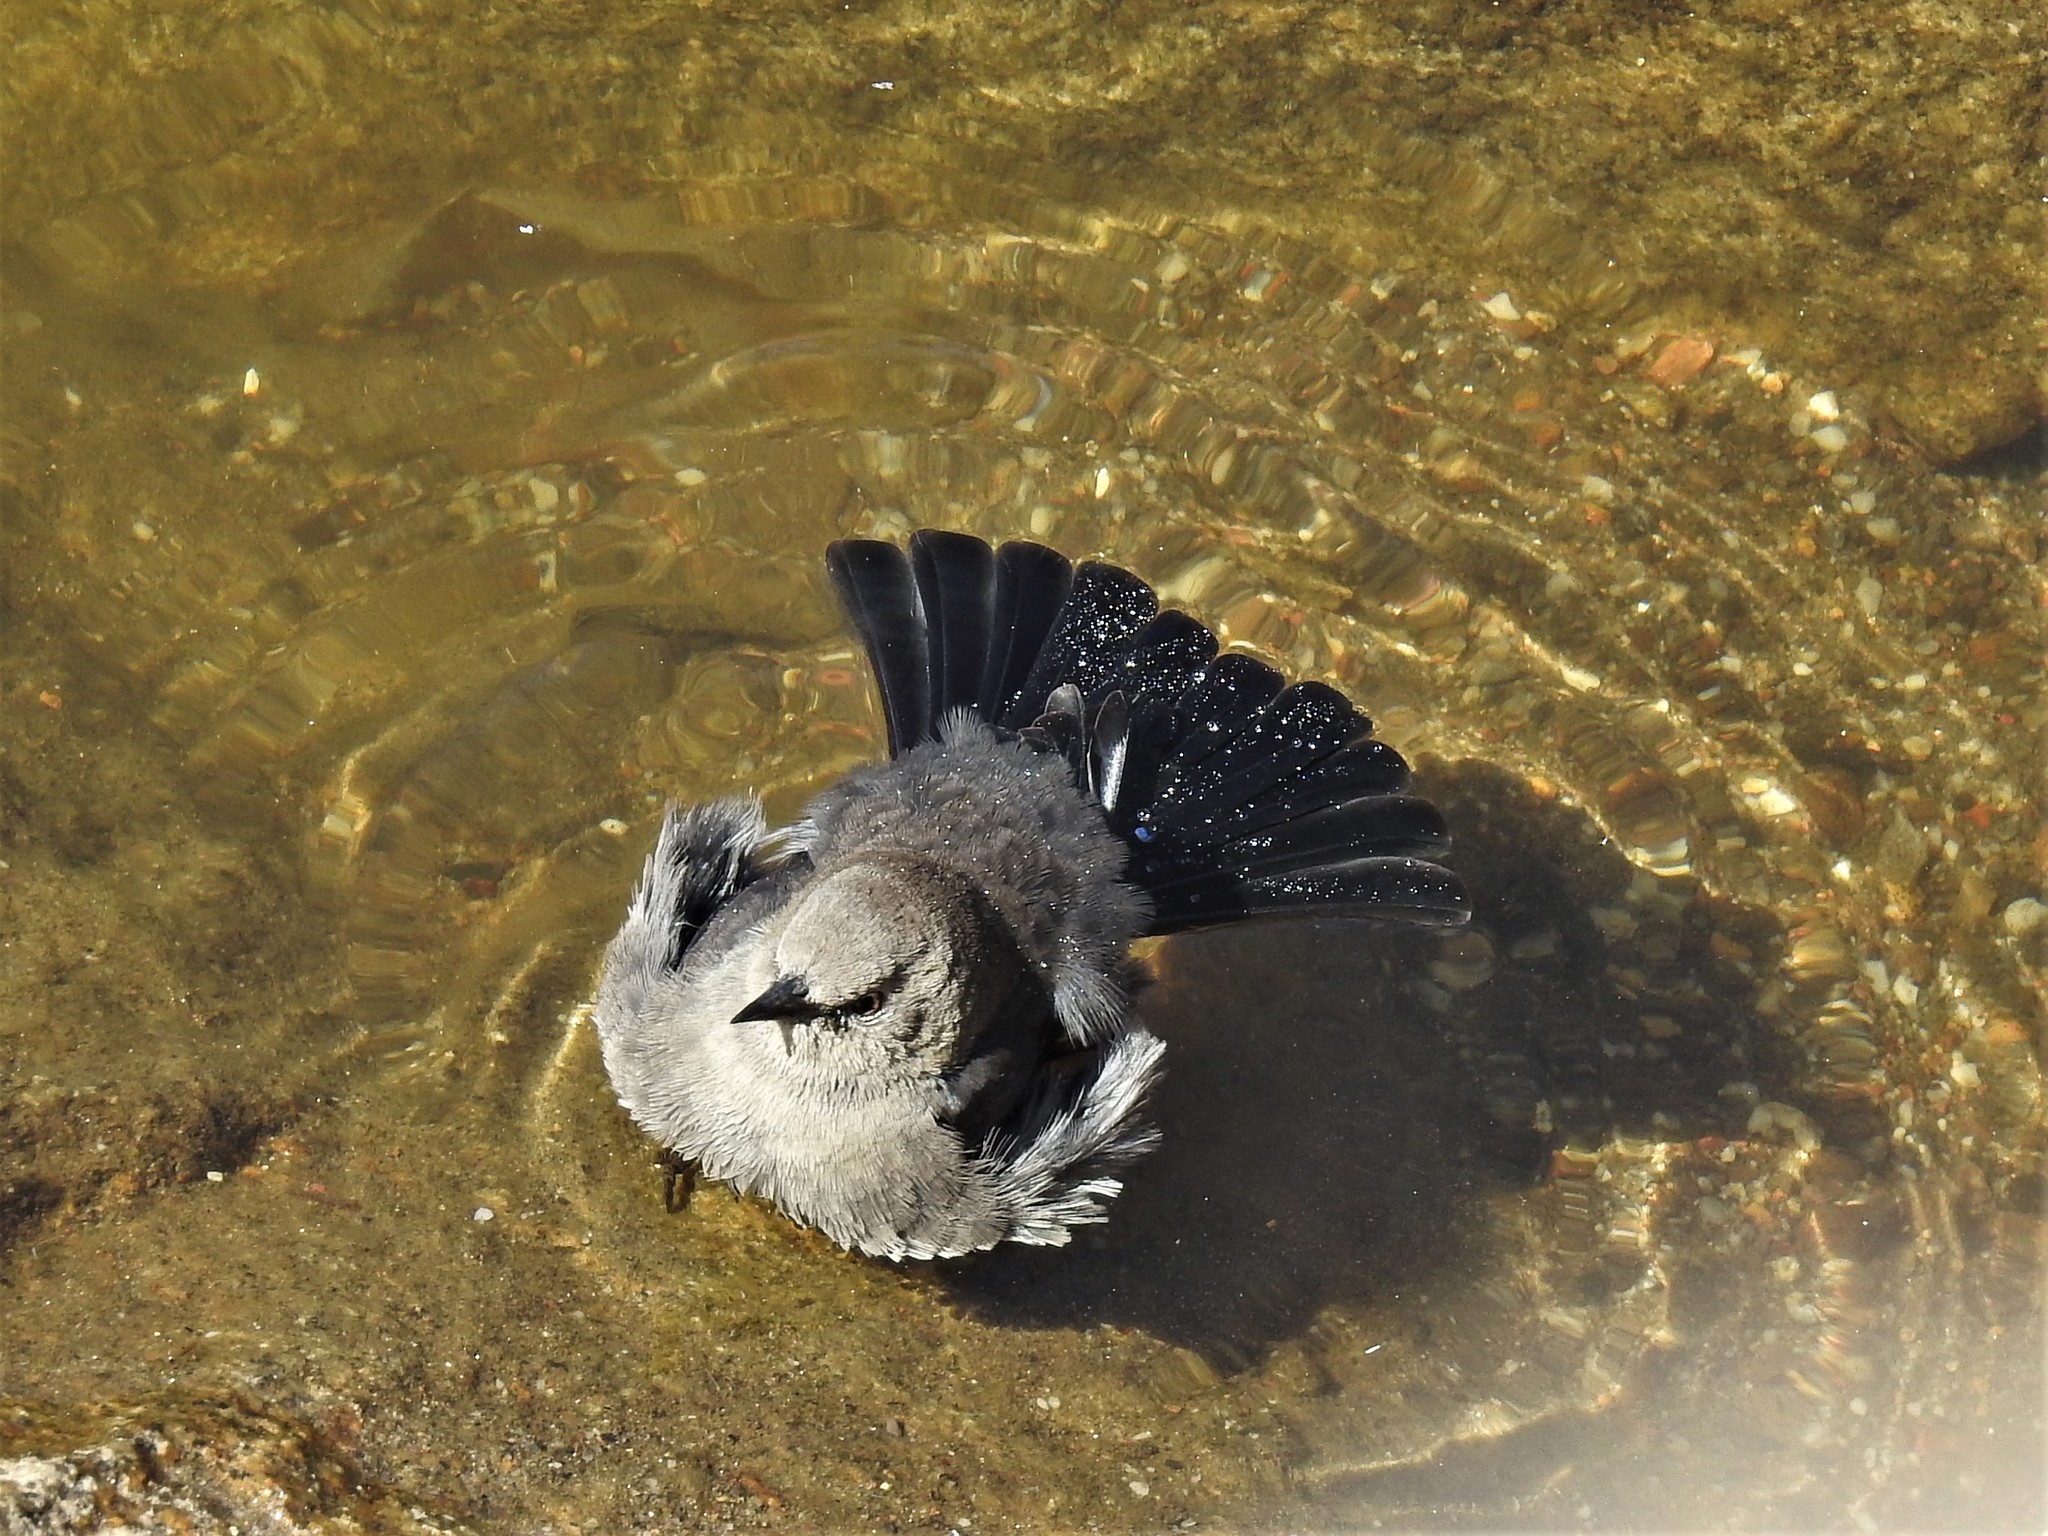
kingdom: Animalia
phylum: Chordata
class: Aves
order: Passeriformes
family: Icteridae
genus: Euphagus
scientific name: Euphagus cyanocephalus
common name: Brewer's blackbird
